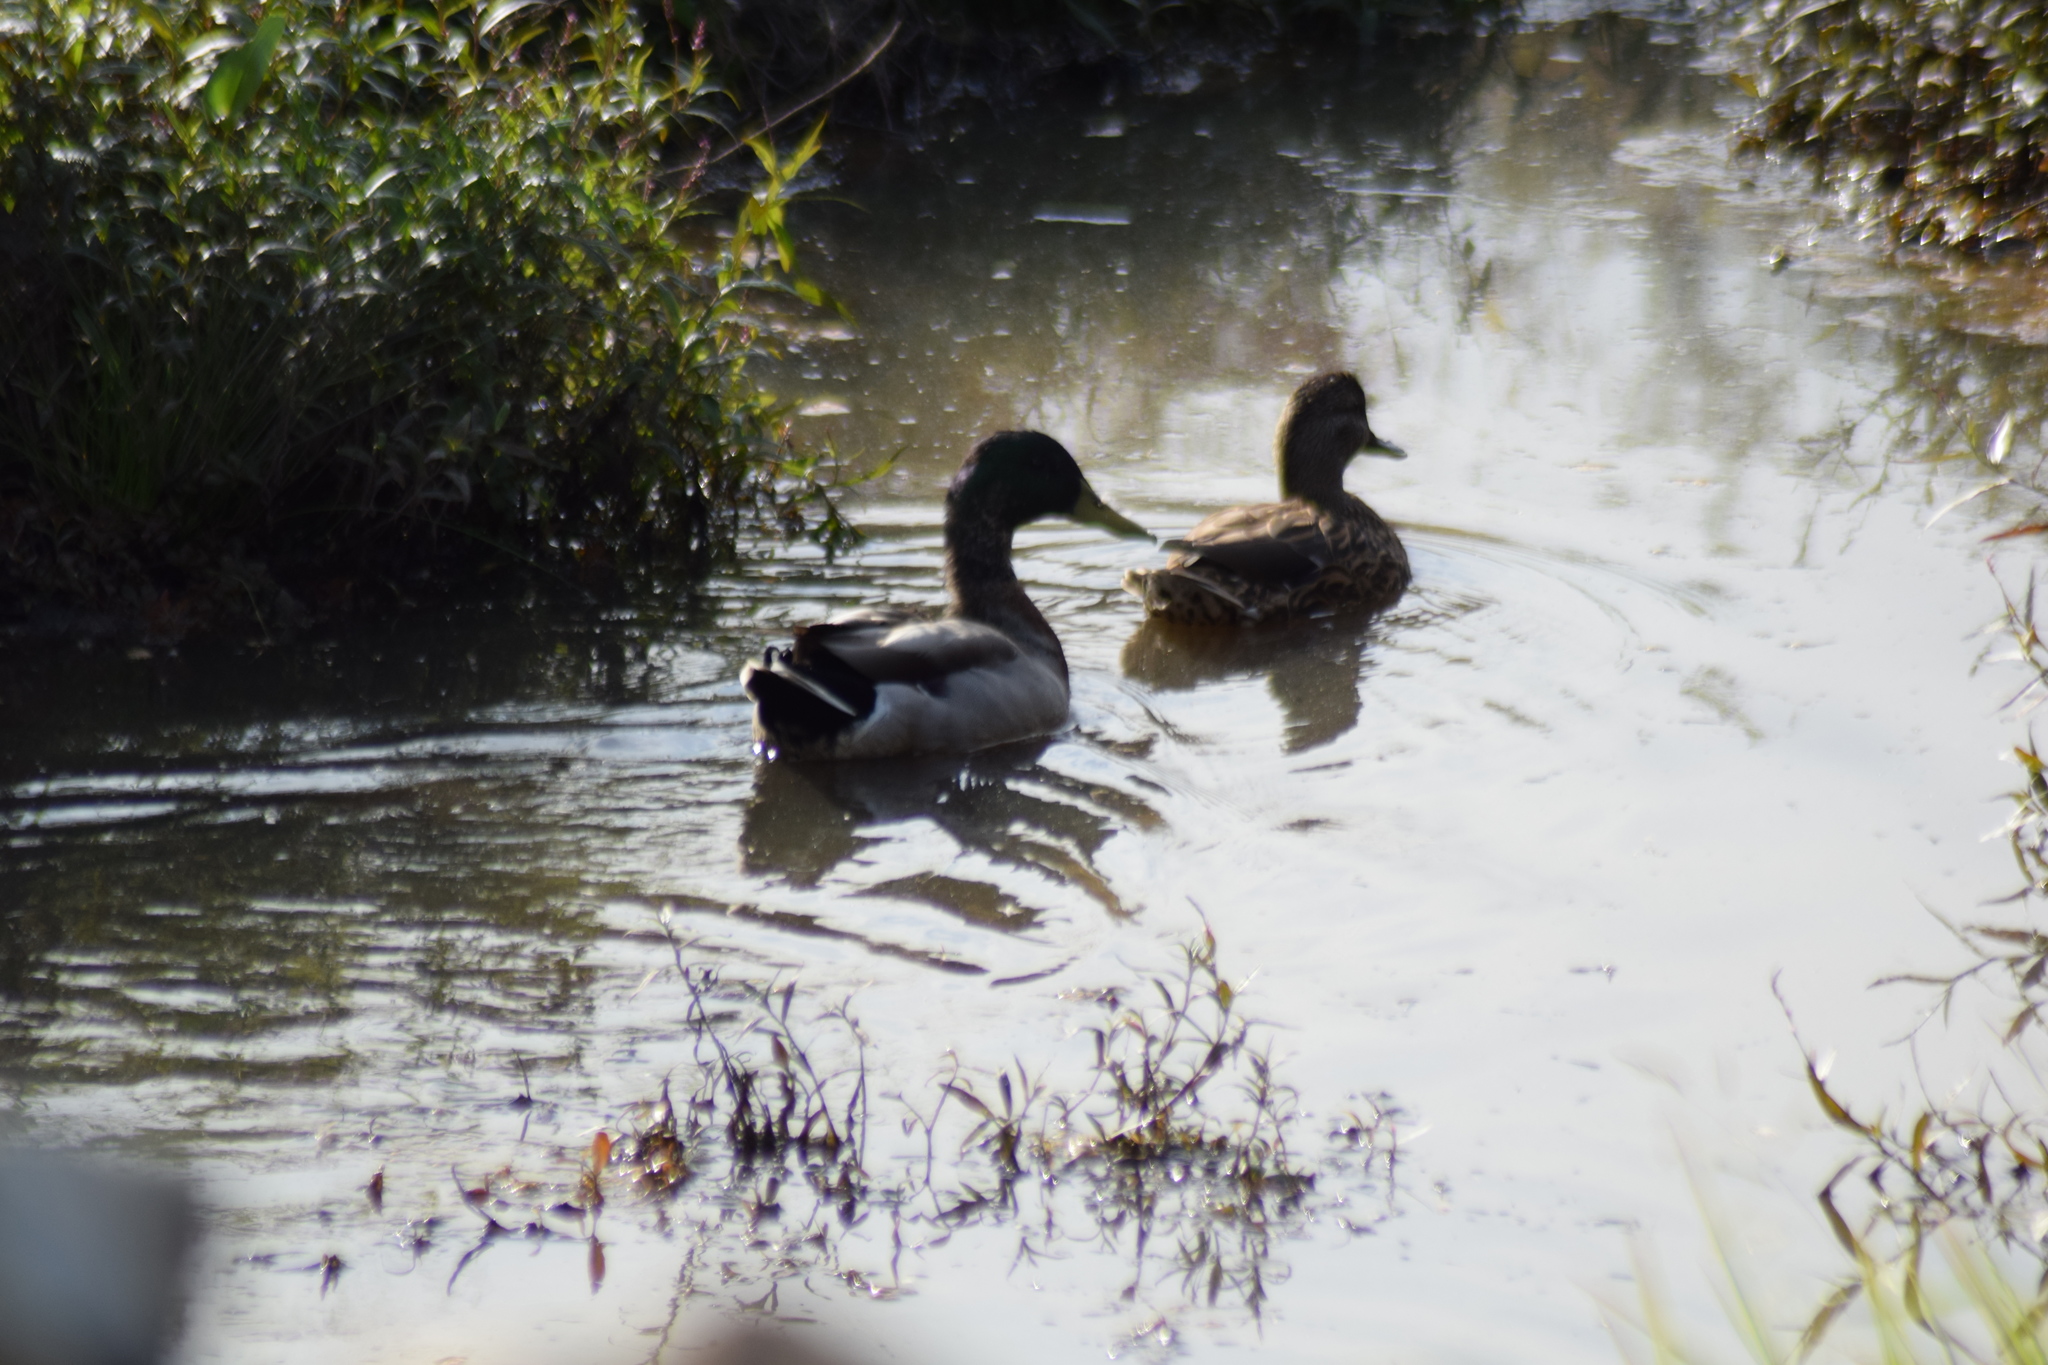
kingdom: Animalia
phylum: Chordata
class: Aves
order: Anseriformes
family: Anatidae
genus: Anas
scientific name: Anas platyrhynchos
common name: Mallard
